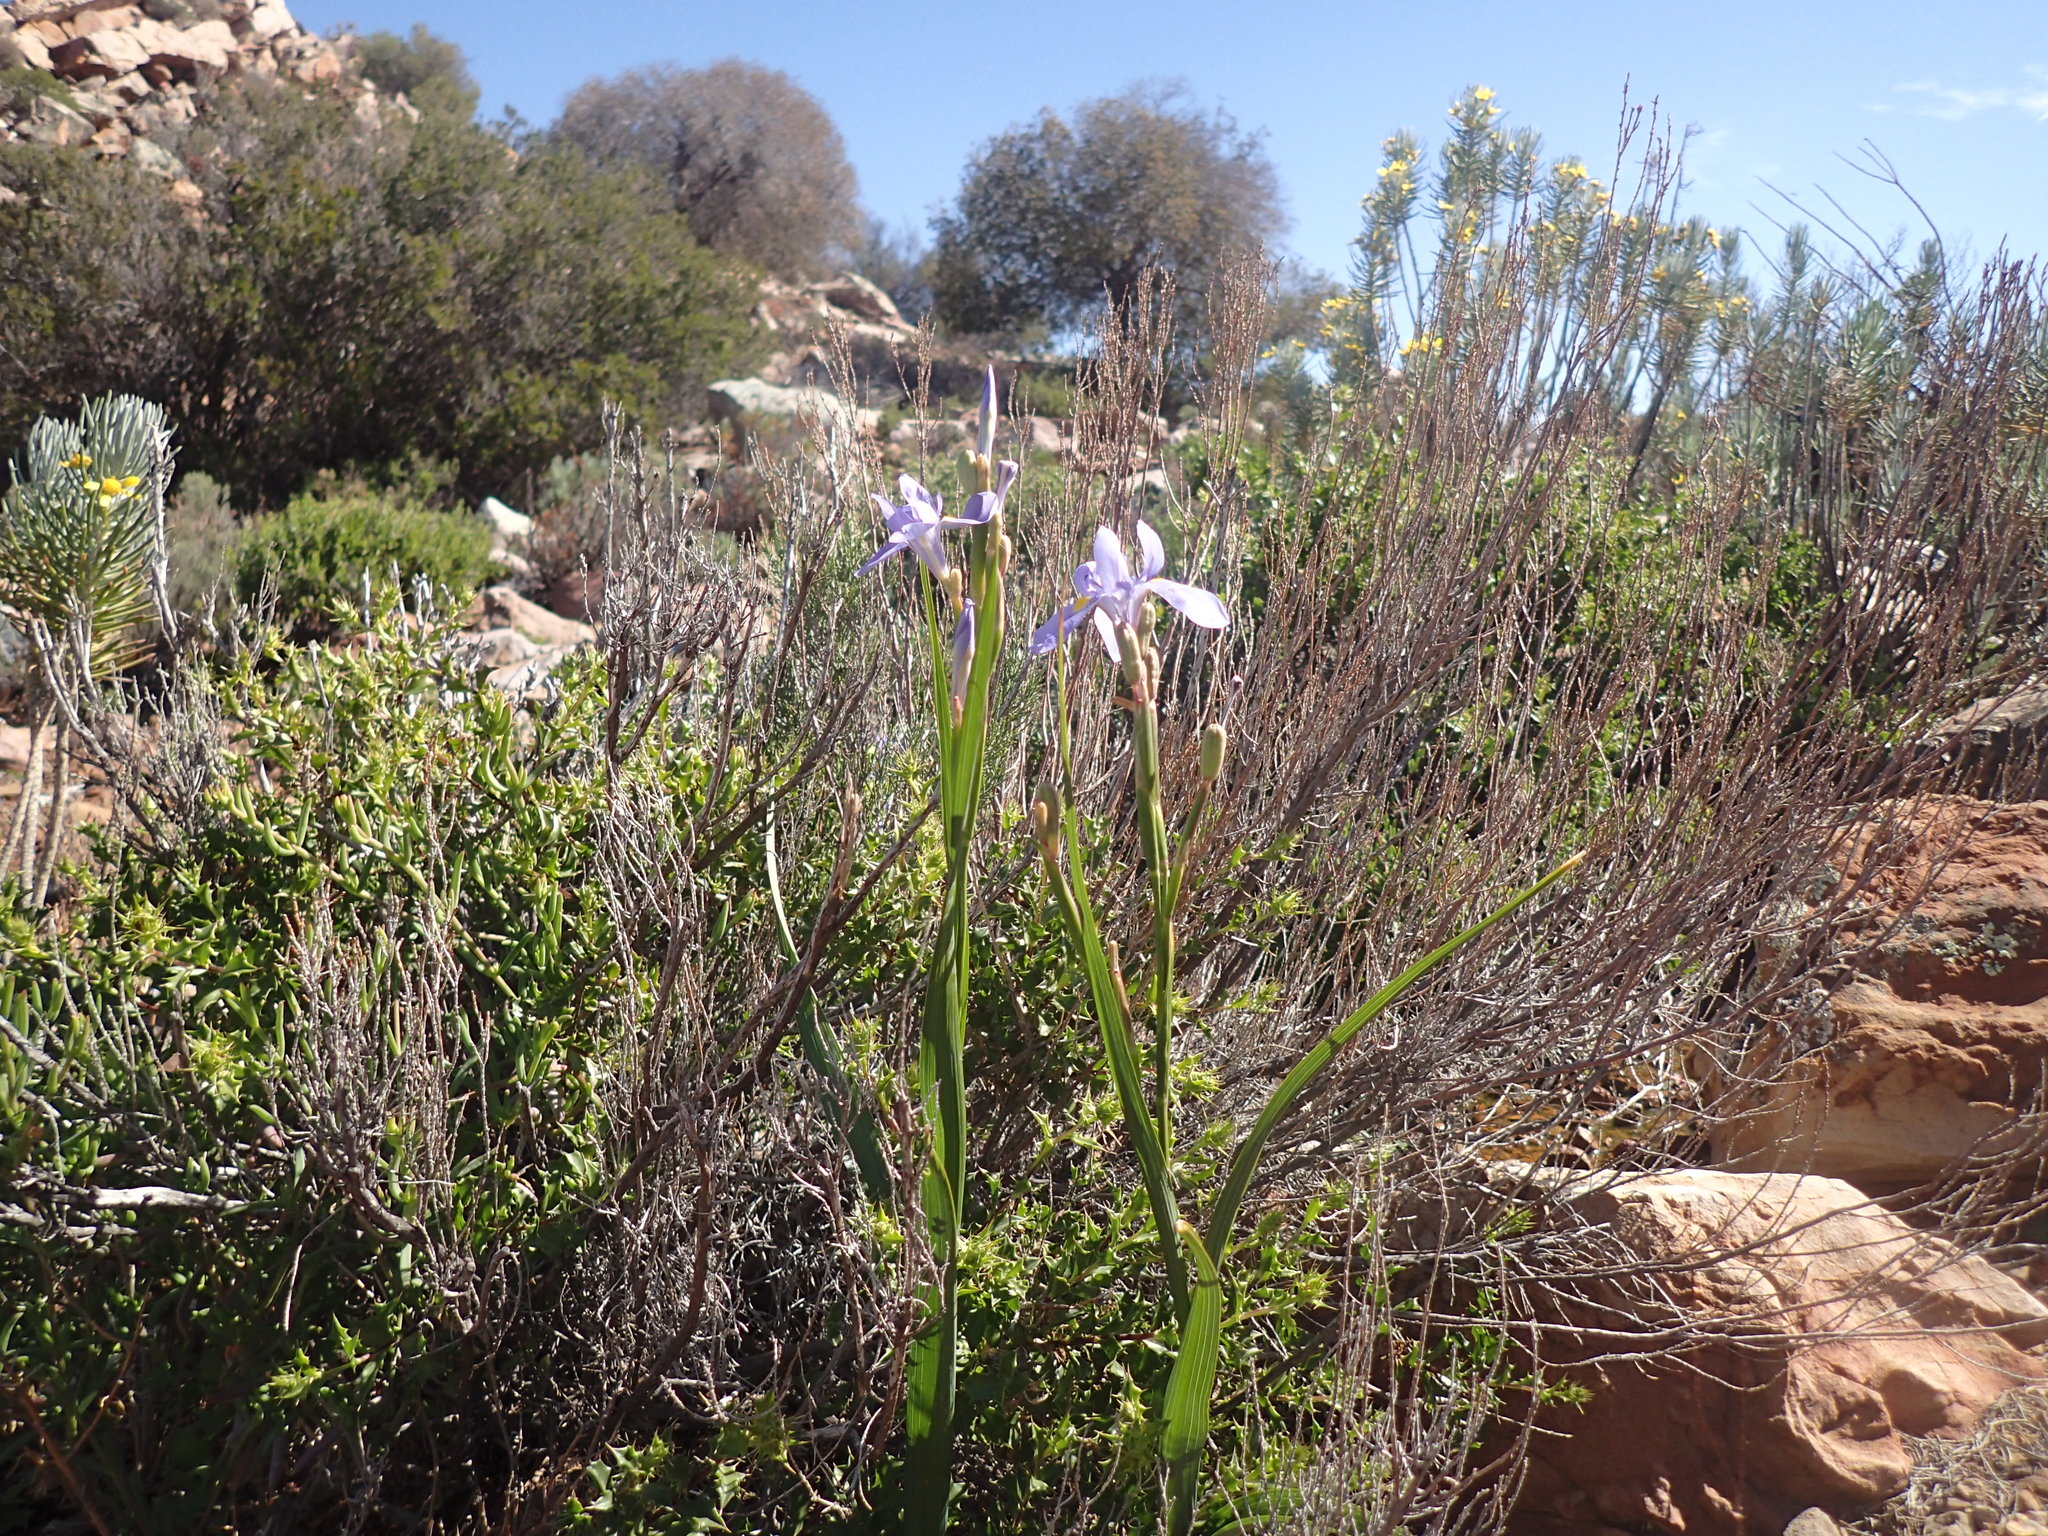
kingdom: Plantae
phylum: Tracheophyta
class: Liliopsida
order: Asparagales
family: Iridaceae
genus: Moraea
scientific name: Moraea polystachya
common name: Blue-tulip
